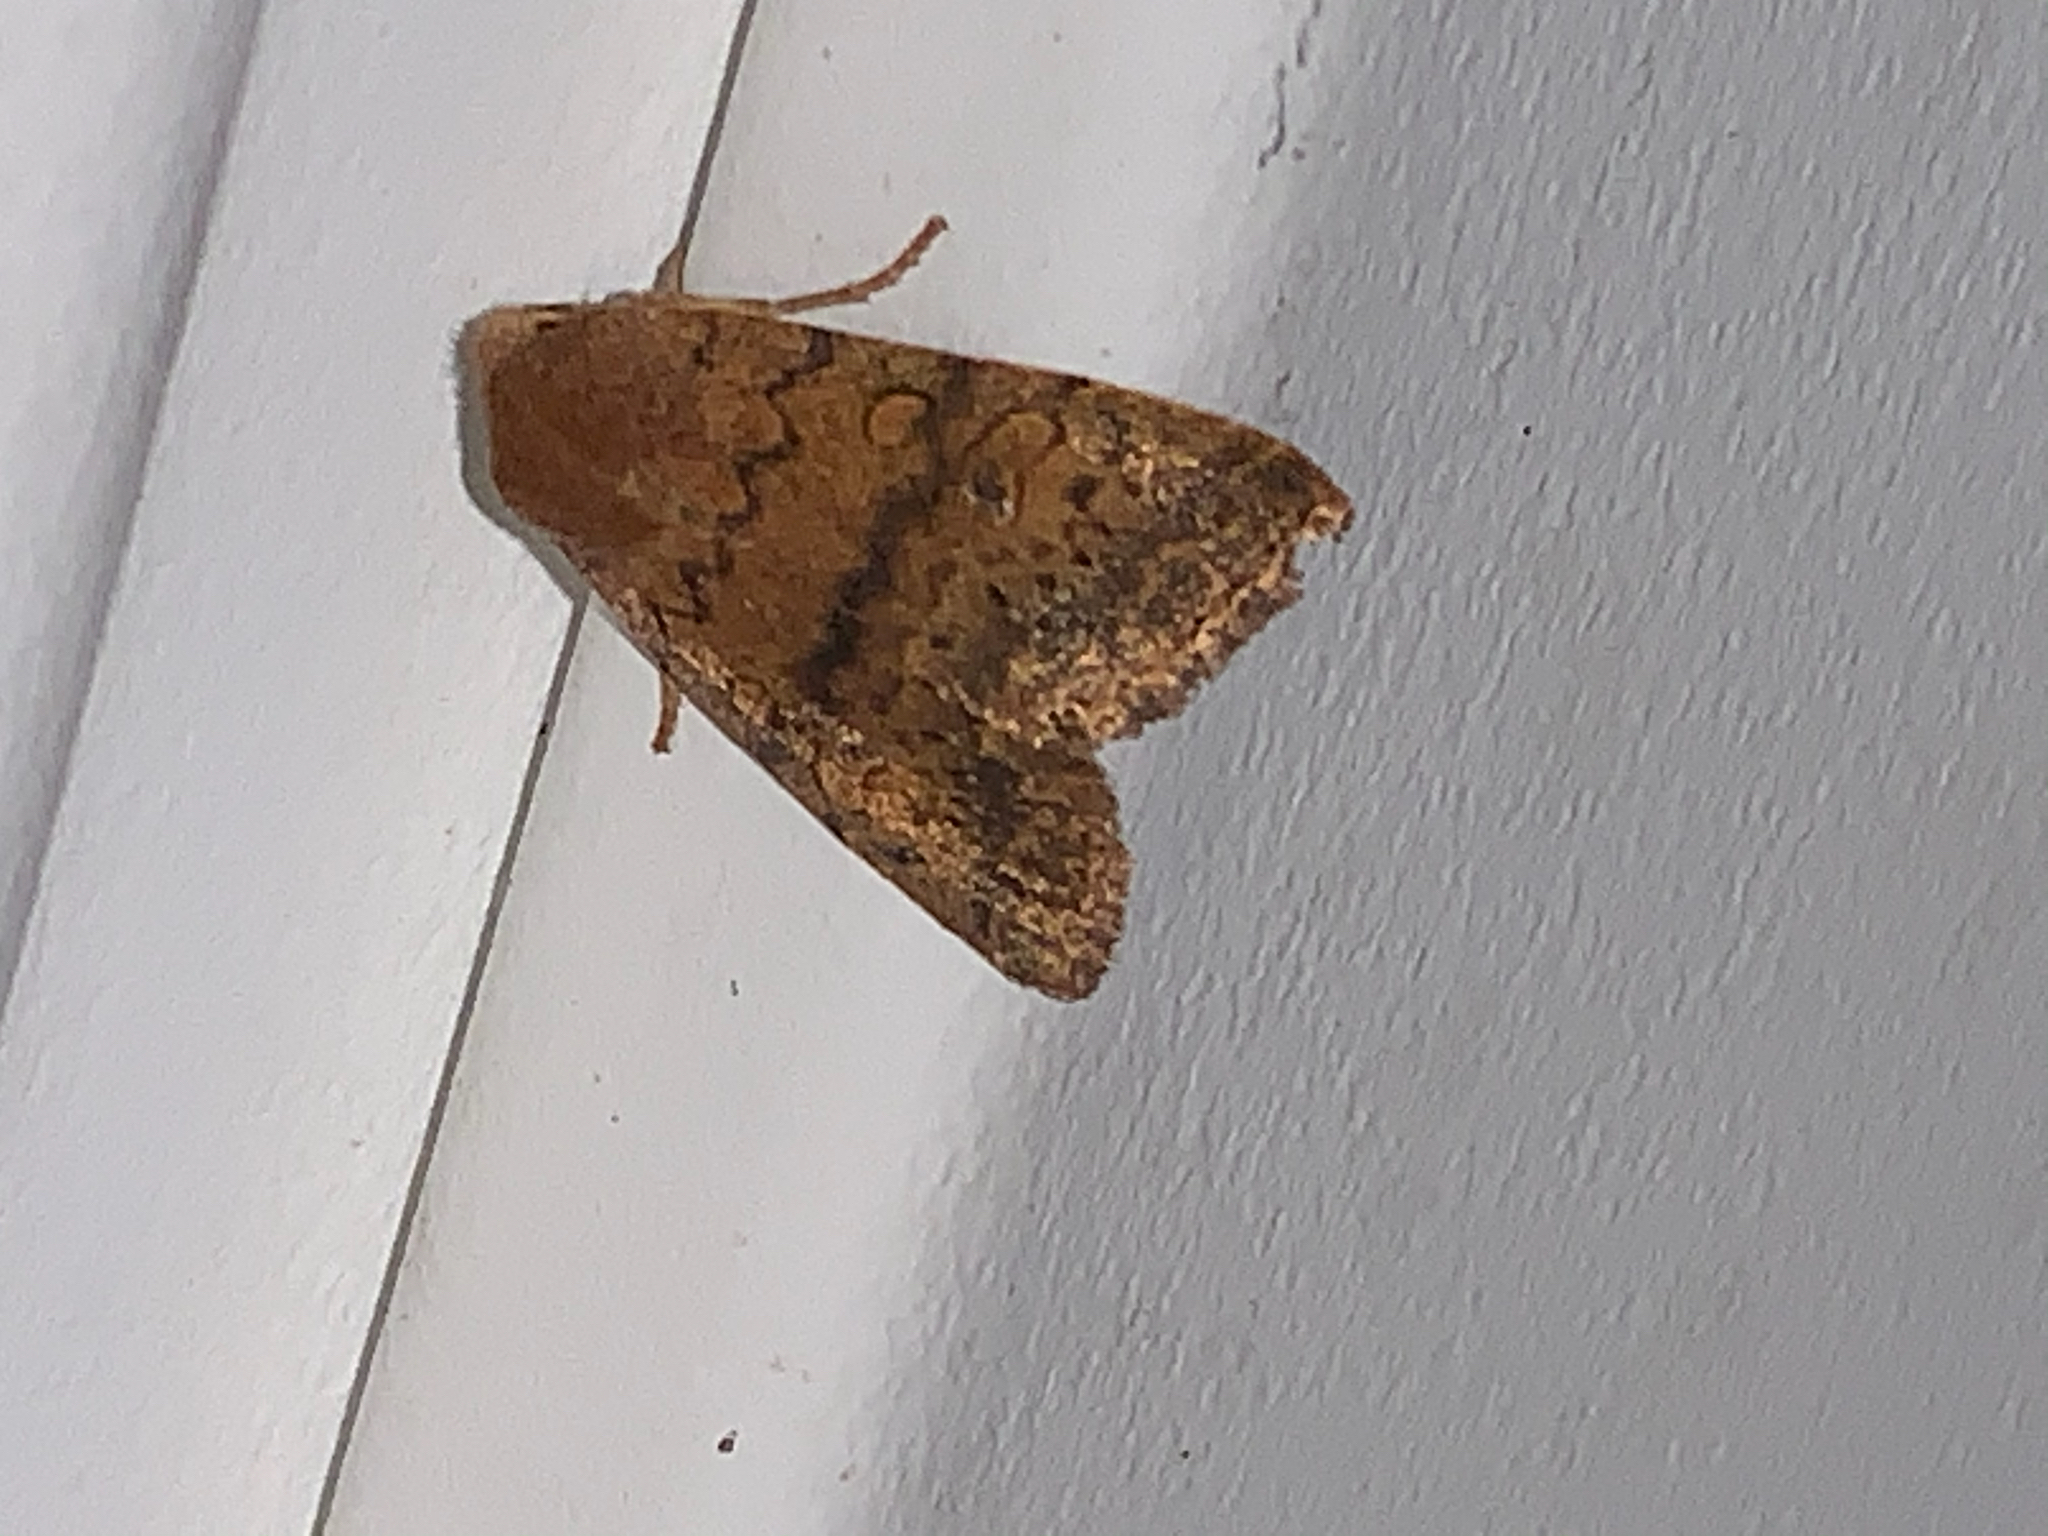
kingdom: Animalia
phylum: Arthropoda
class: Insecta
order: Lepidoptera
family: Noctuidae
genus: Agrochola
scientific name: Agrochola bicolorago
